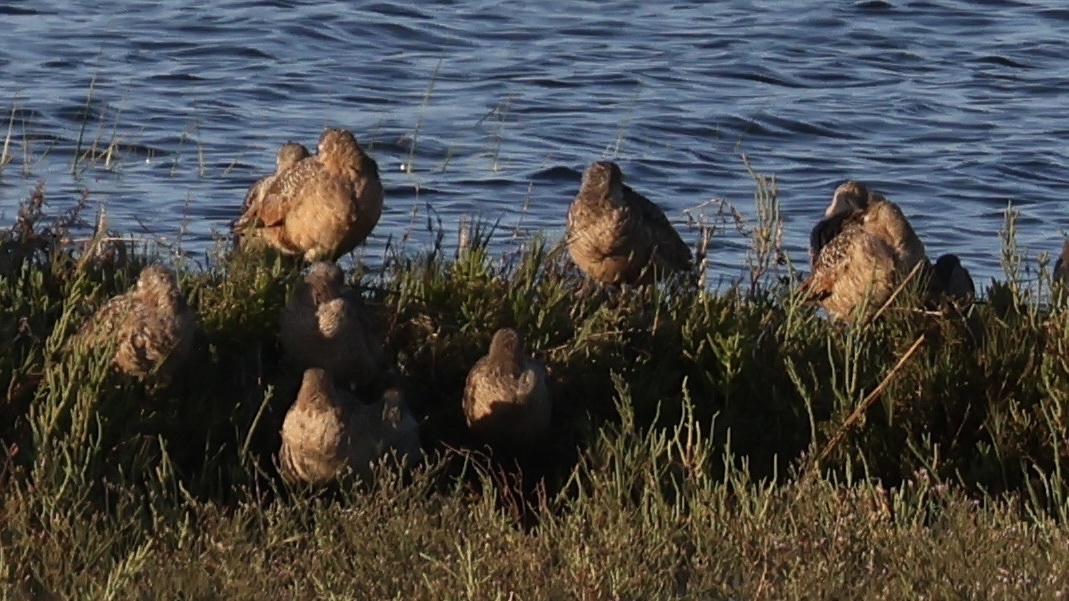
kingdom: Animalia
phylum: Chordata
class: Aves
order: Charadriiformes
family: Scolopacidae
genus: Limosa
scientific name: Limosa fedoa
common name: Marbled godwit
